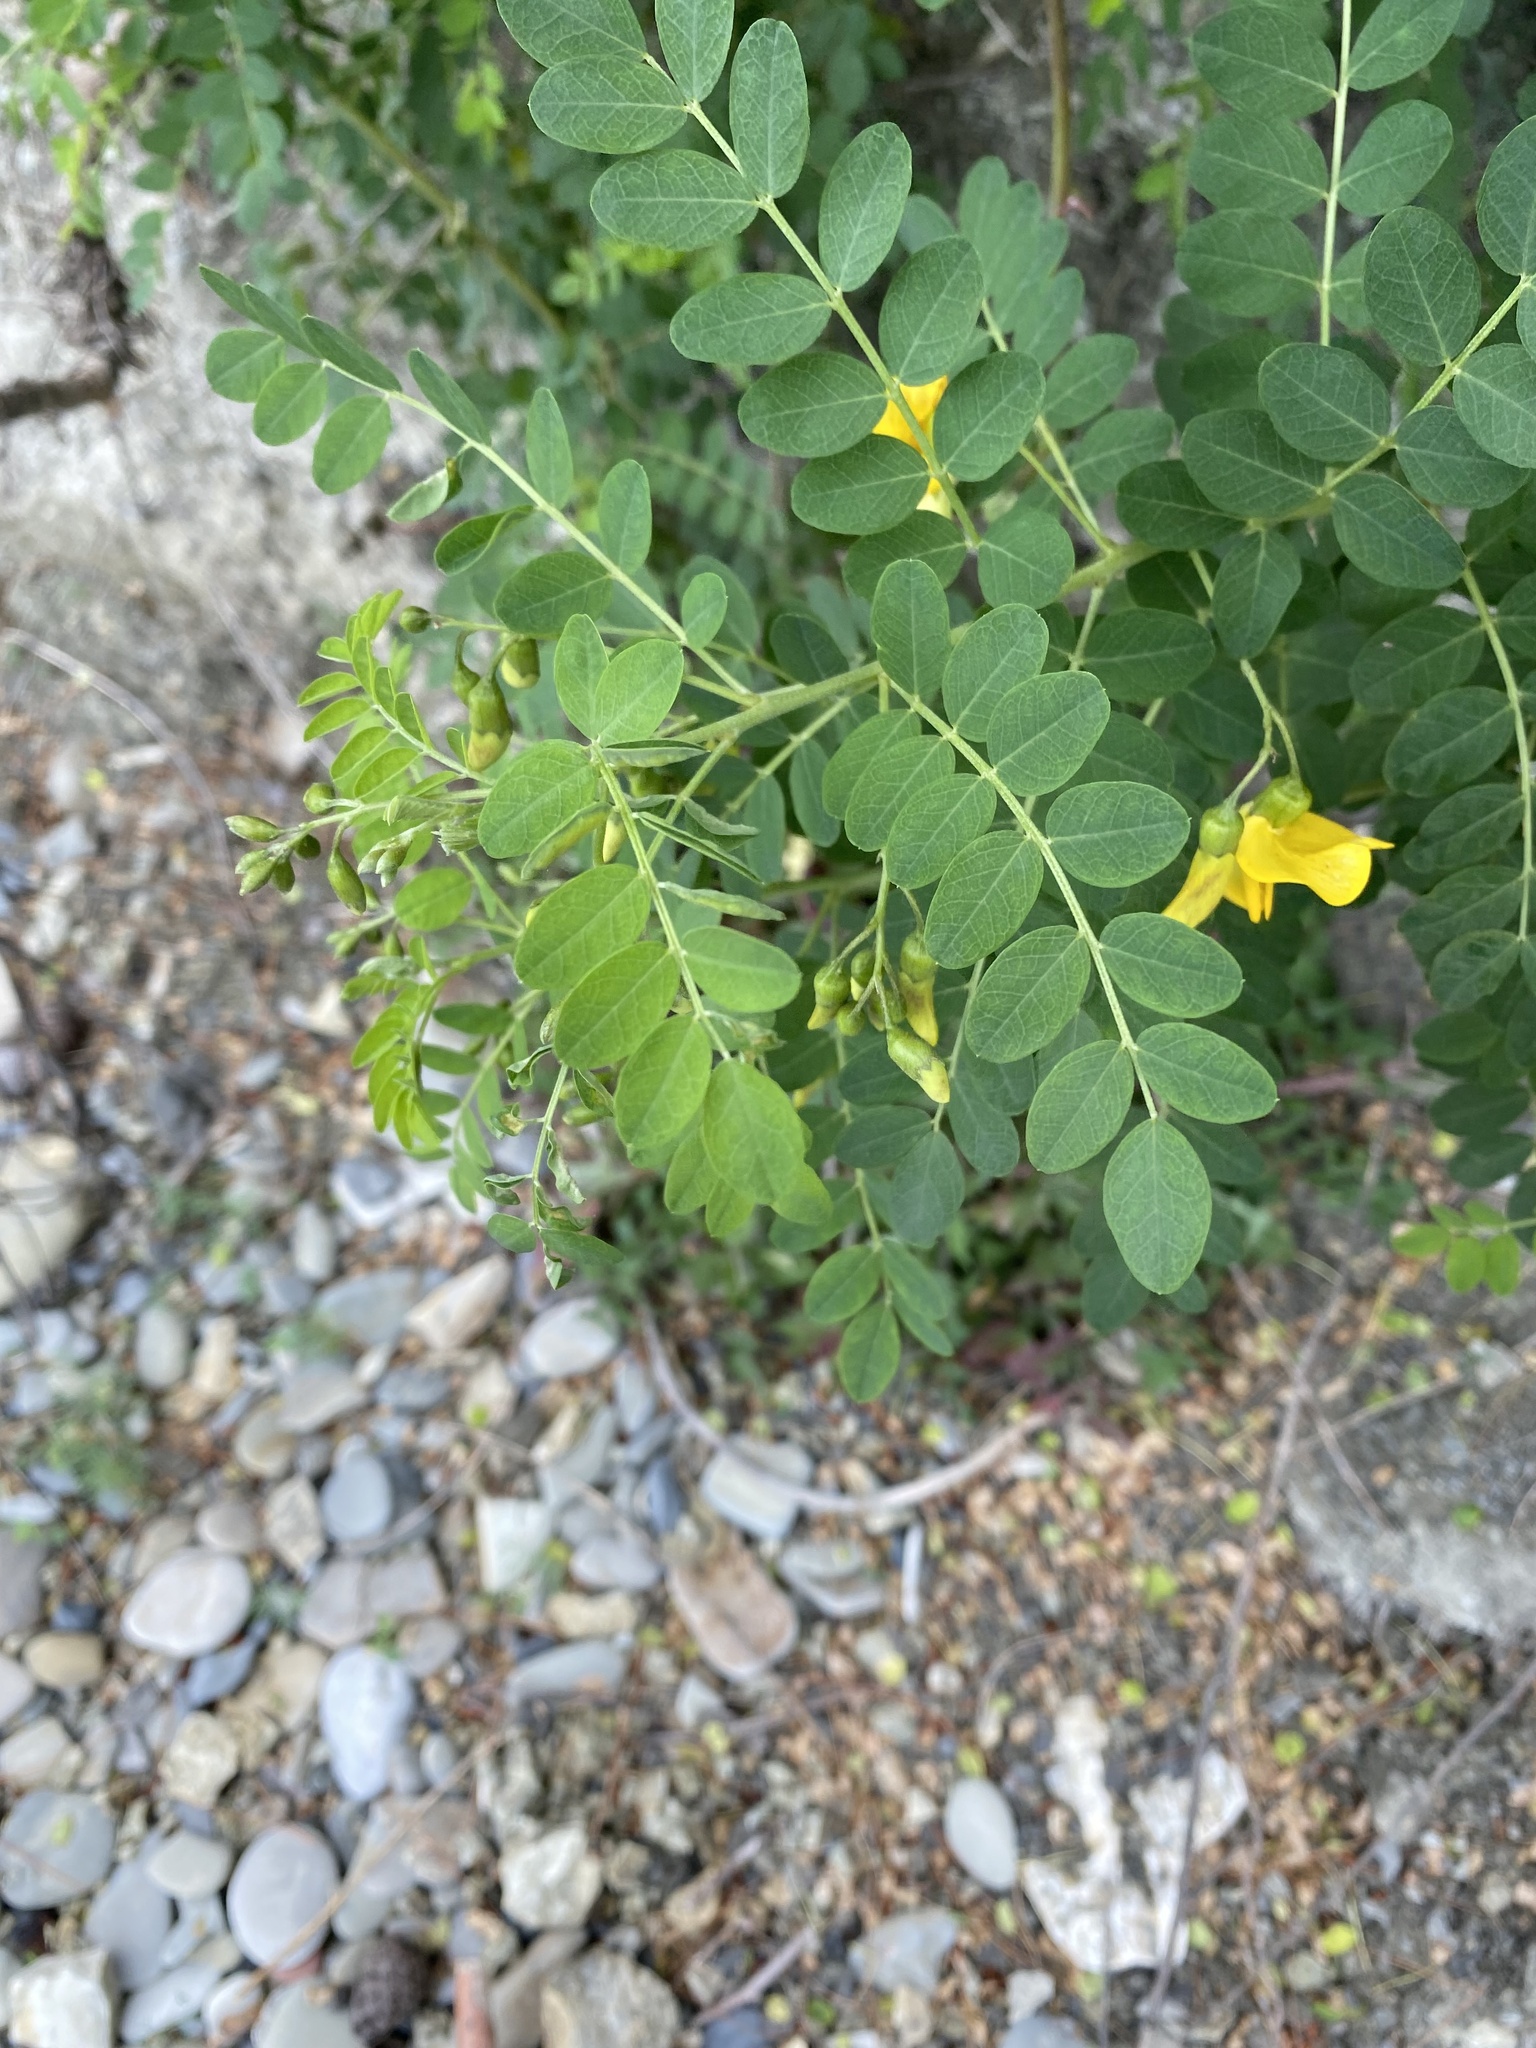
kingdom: Plantae
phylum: Tracheophyta
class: Magnoliopsida
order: Fabales
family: Fabaceae
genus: Colutea
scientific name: Colutea cilicica
